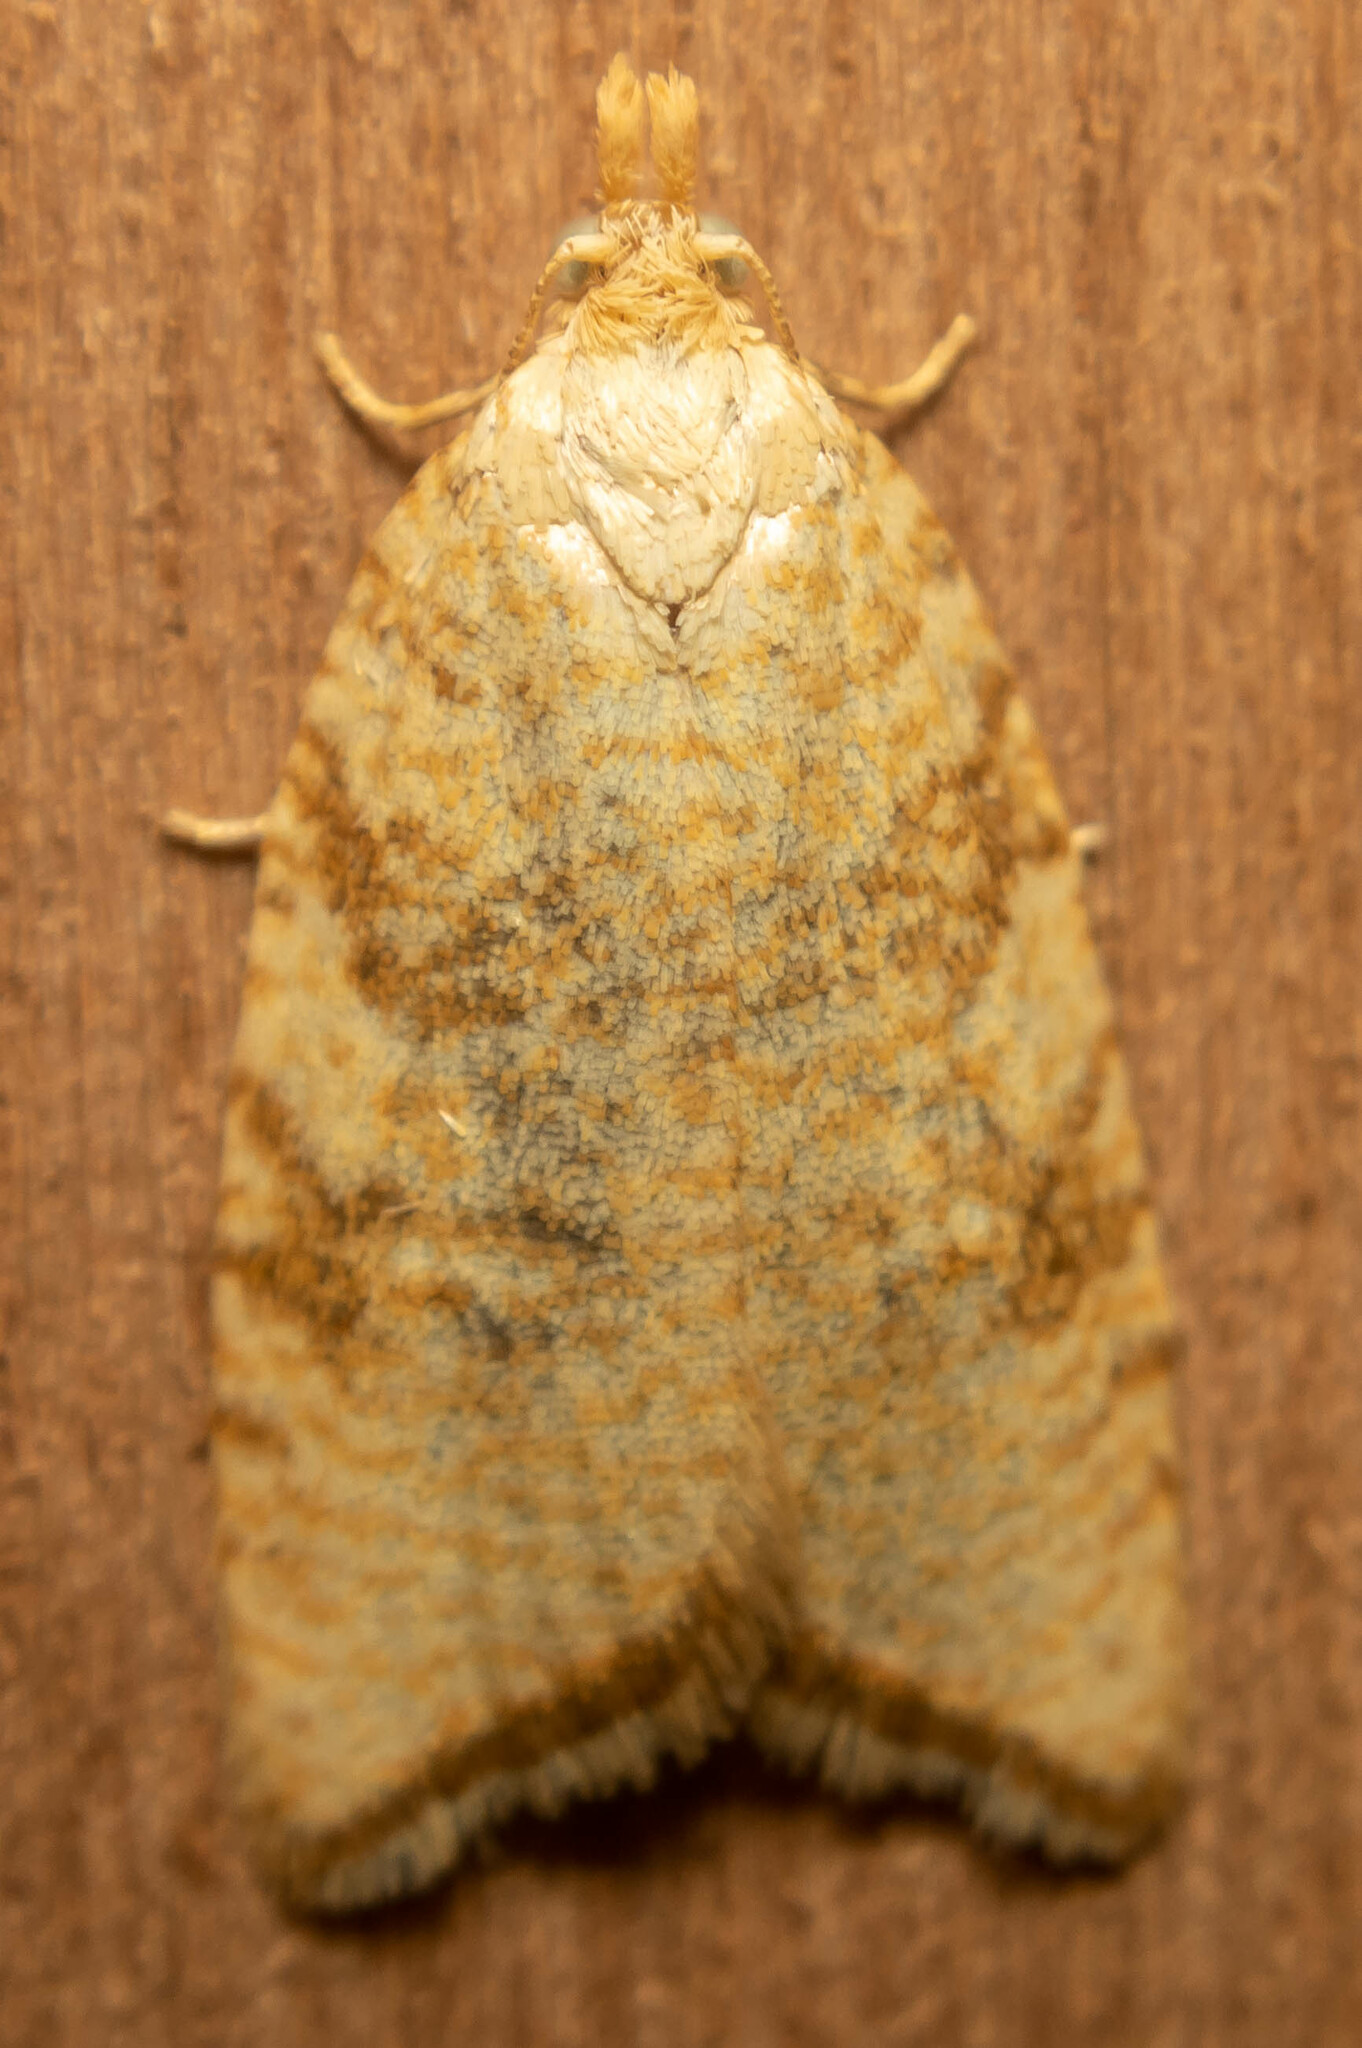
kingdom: Animalia
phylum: Arthropoda
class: Insecta
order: Lepidoptera
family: Tortricidae
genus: Aleimma
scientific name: Aleimma loeflingiana
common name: Yellow oak button
